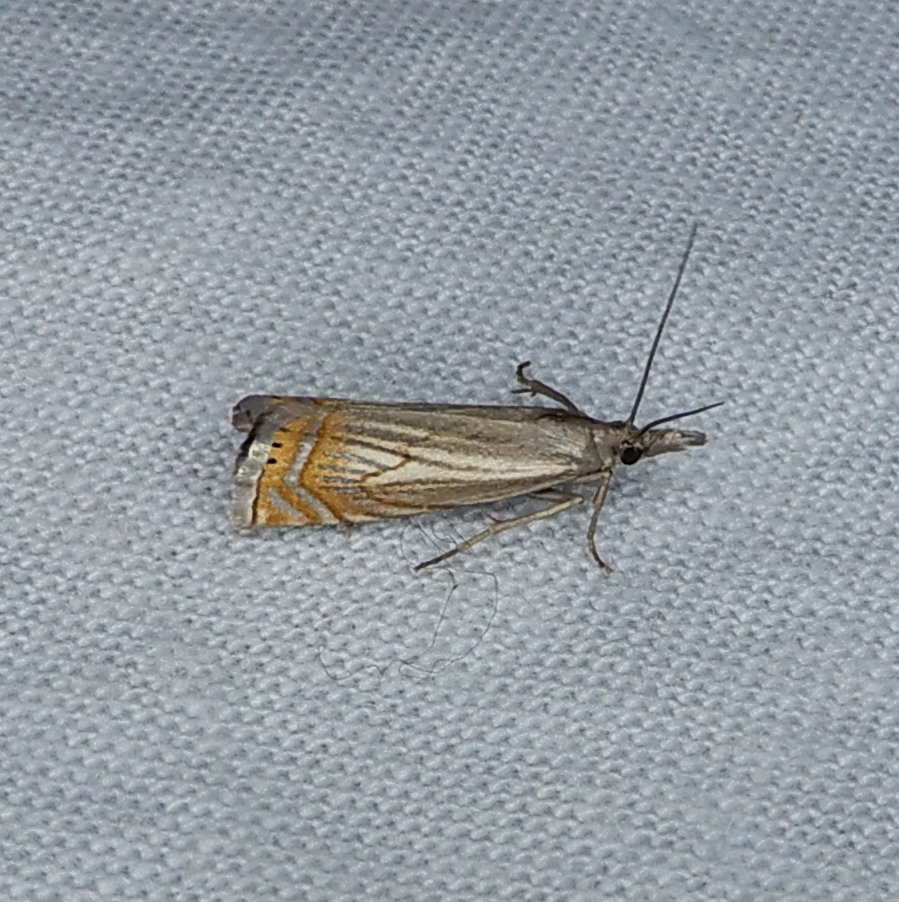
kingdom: Animalia
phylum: Arthropoda
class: Insecta
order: Lepidoptera
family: Crambidae
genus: Chrysoteuchia
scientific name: Chrysoteuchia topiarius
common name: Topiary grass-veneer
